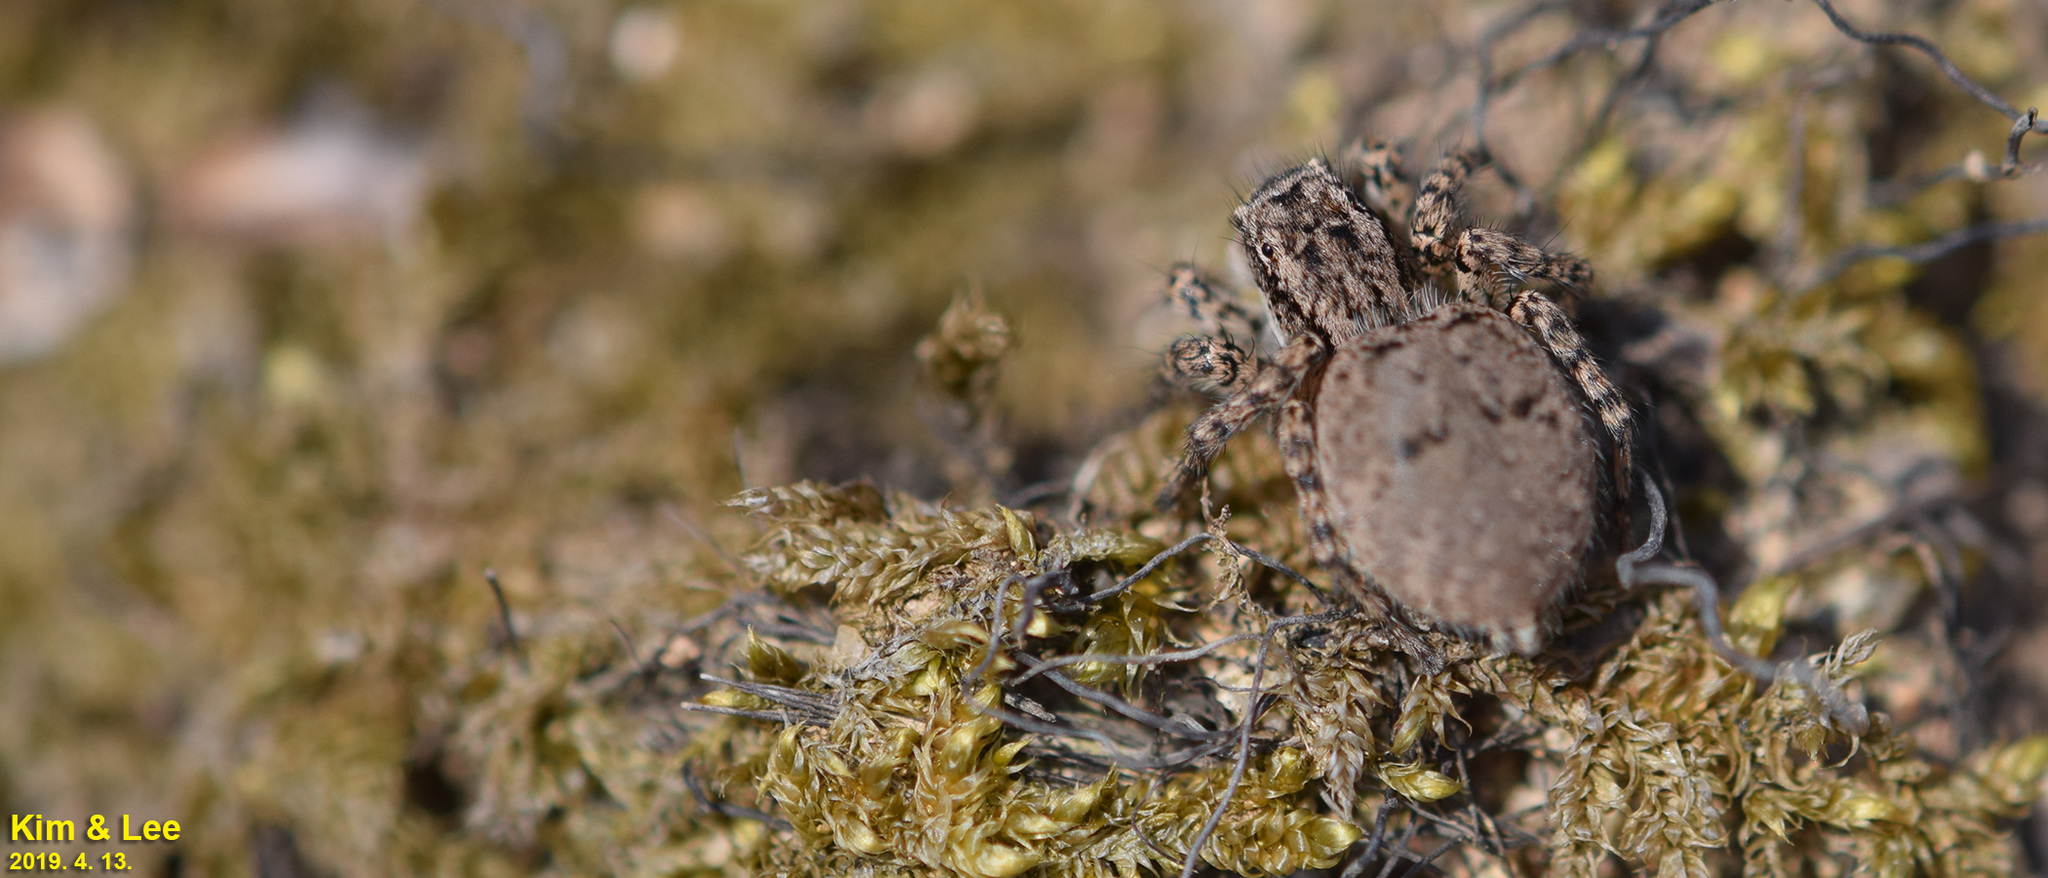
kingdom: Animalia
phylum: Arthropoda
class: Arachnida
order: Araneae
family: Salticidae
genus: Asianellus
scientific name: Asianellus festivus
